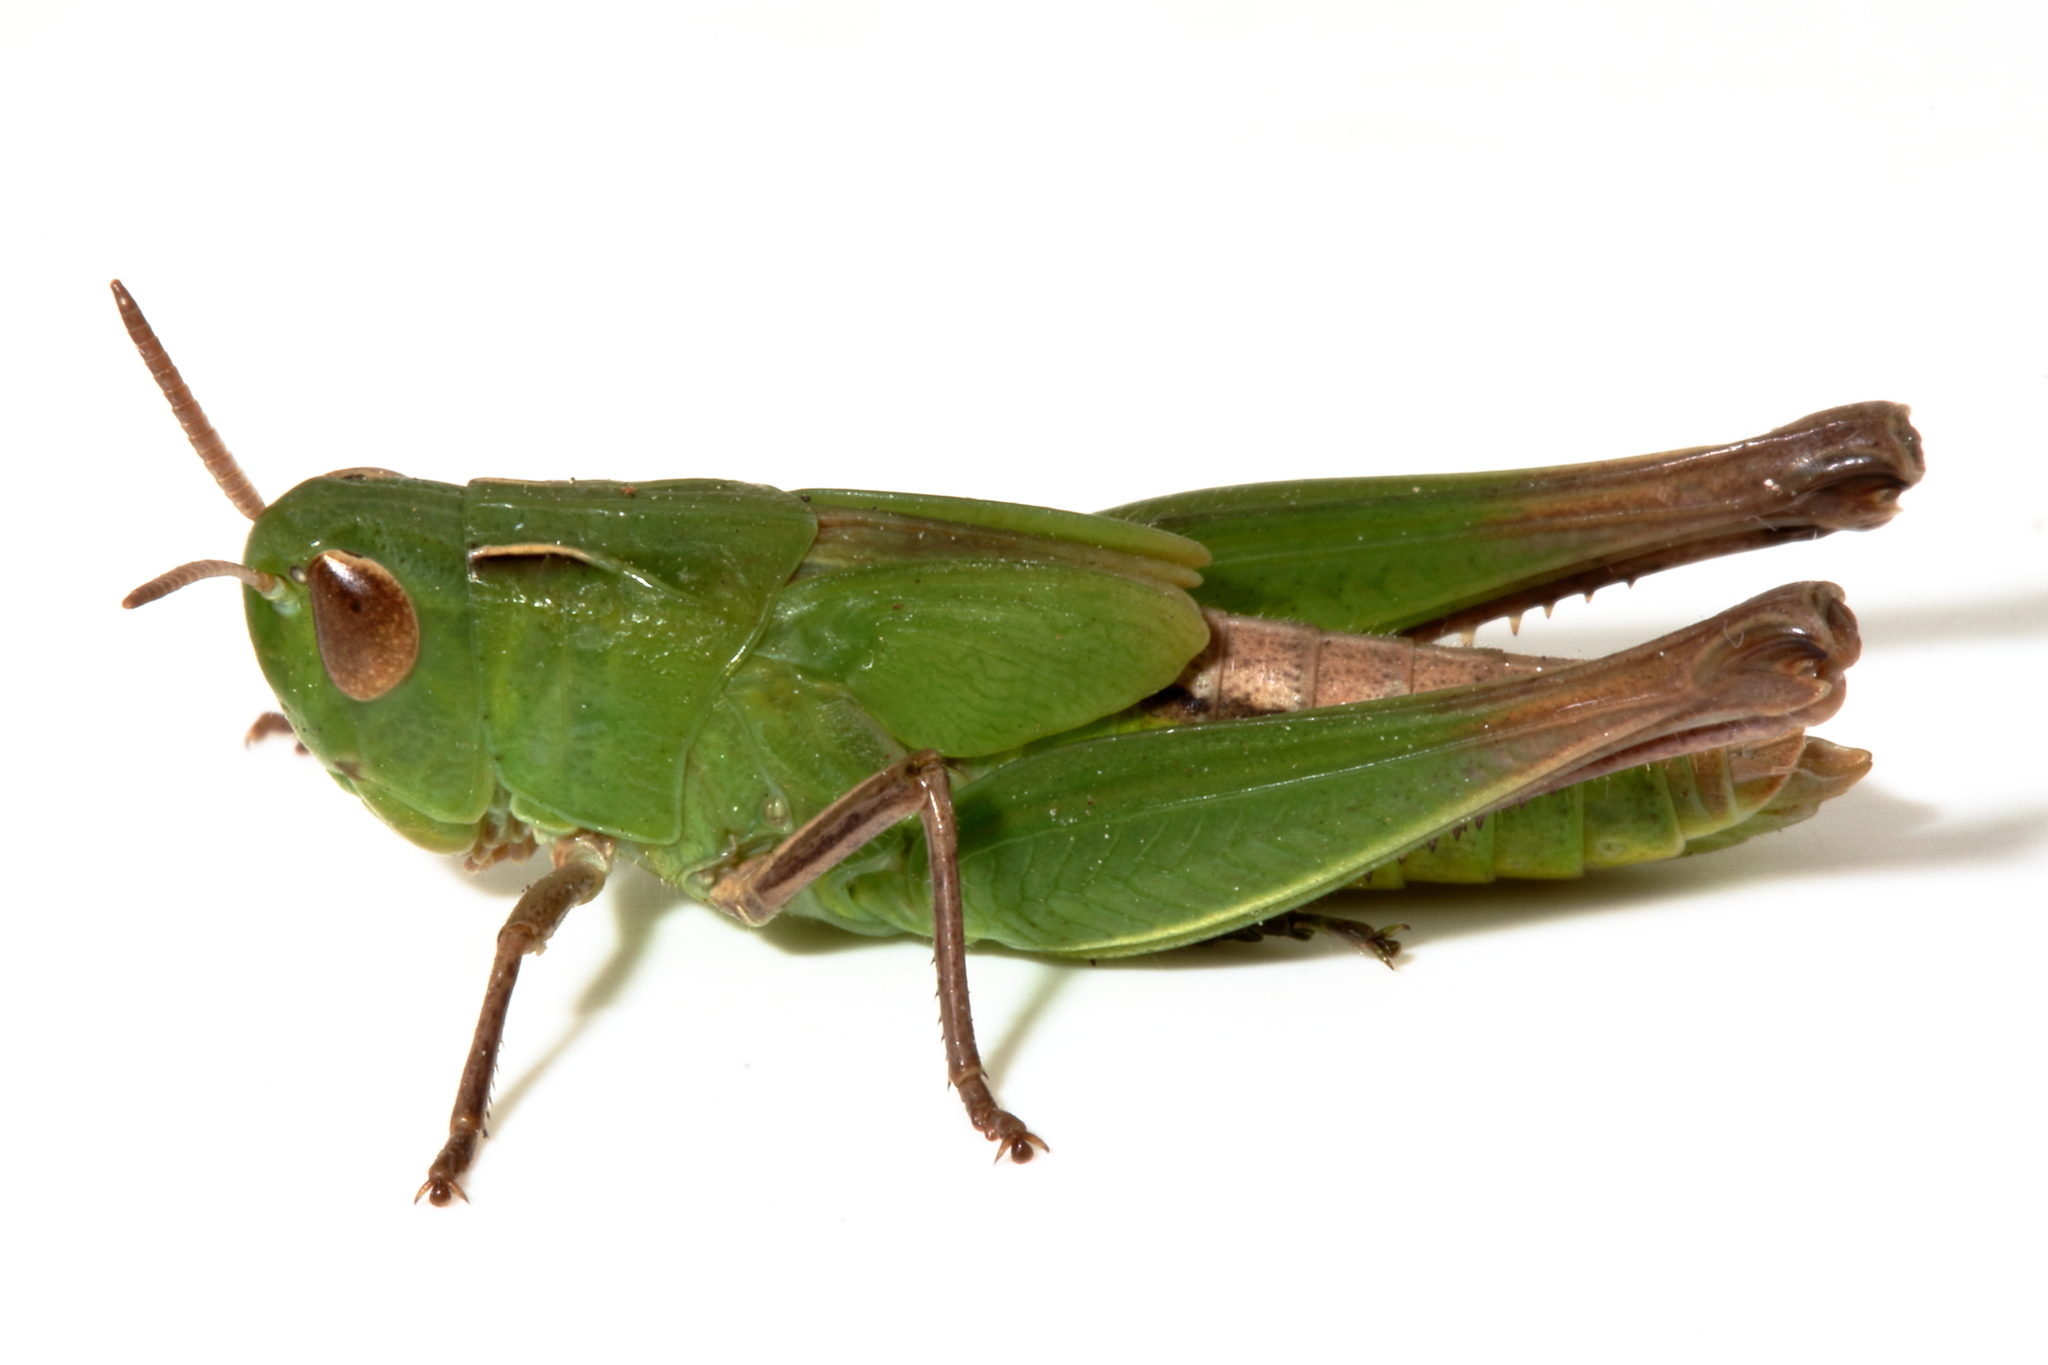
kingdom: Animalia
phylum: Arthropoda
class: Insecta
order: Orthoptera
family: Acrididae
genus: Caledia
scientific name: Caledia captiva
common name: Caledia
